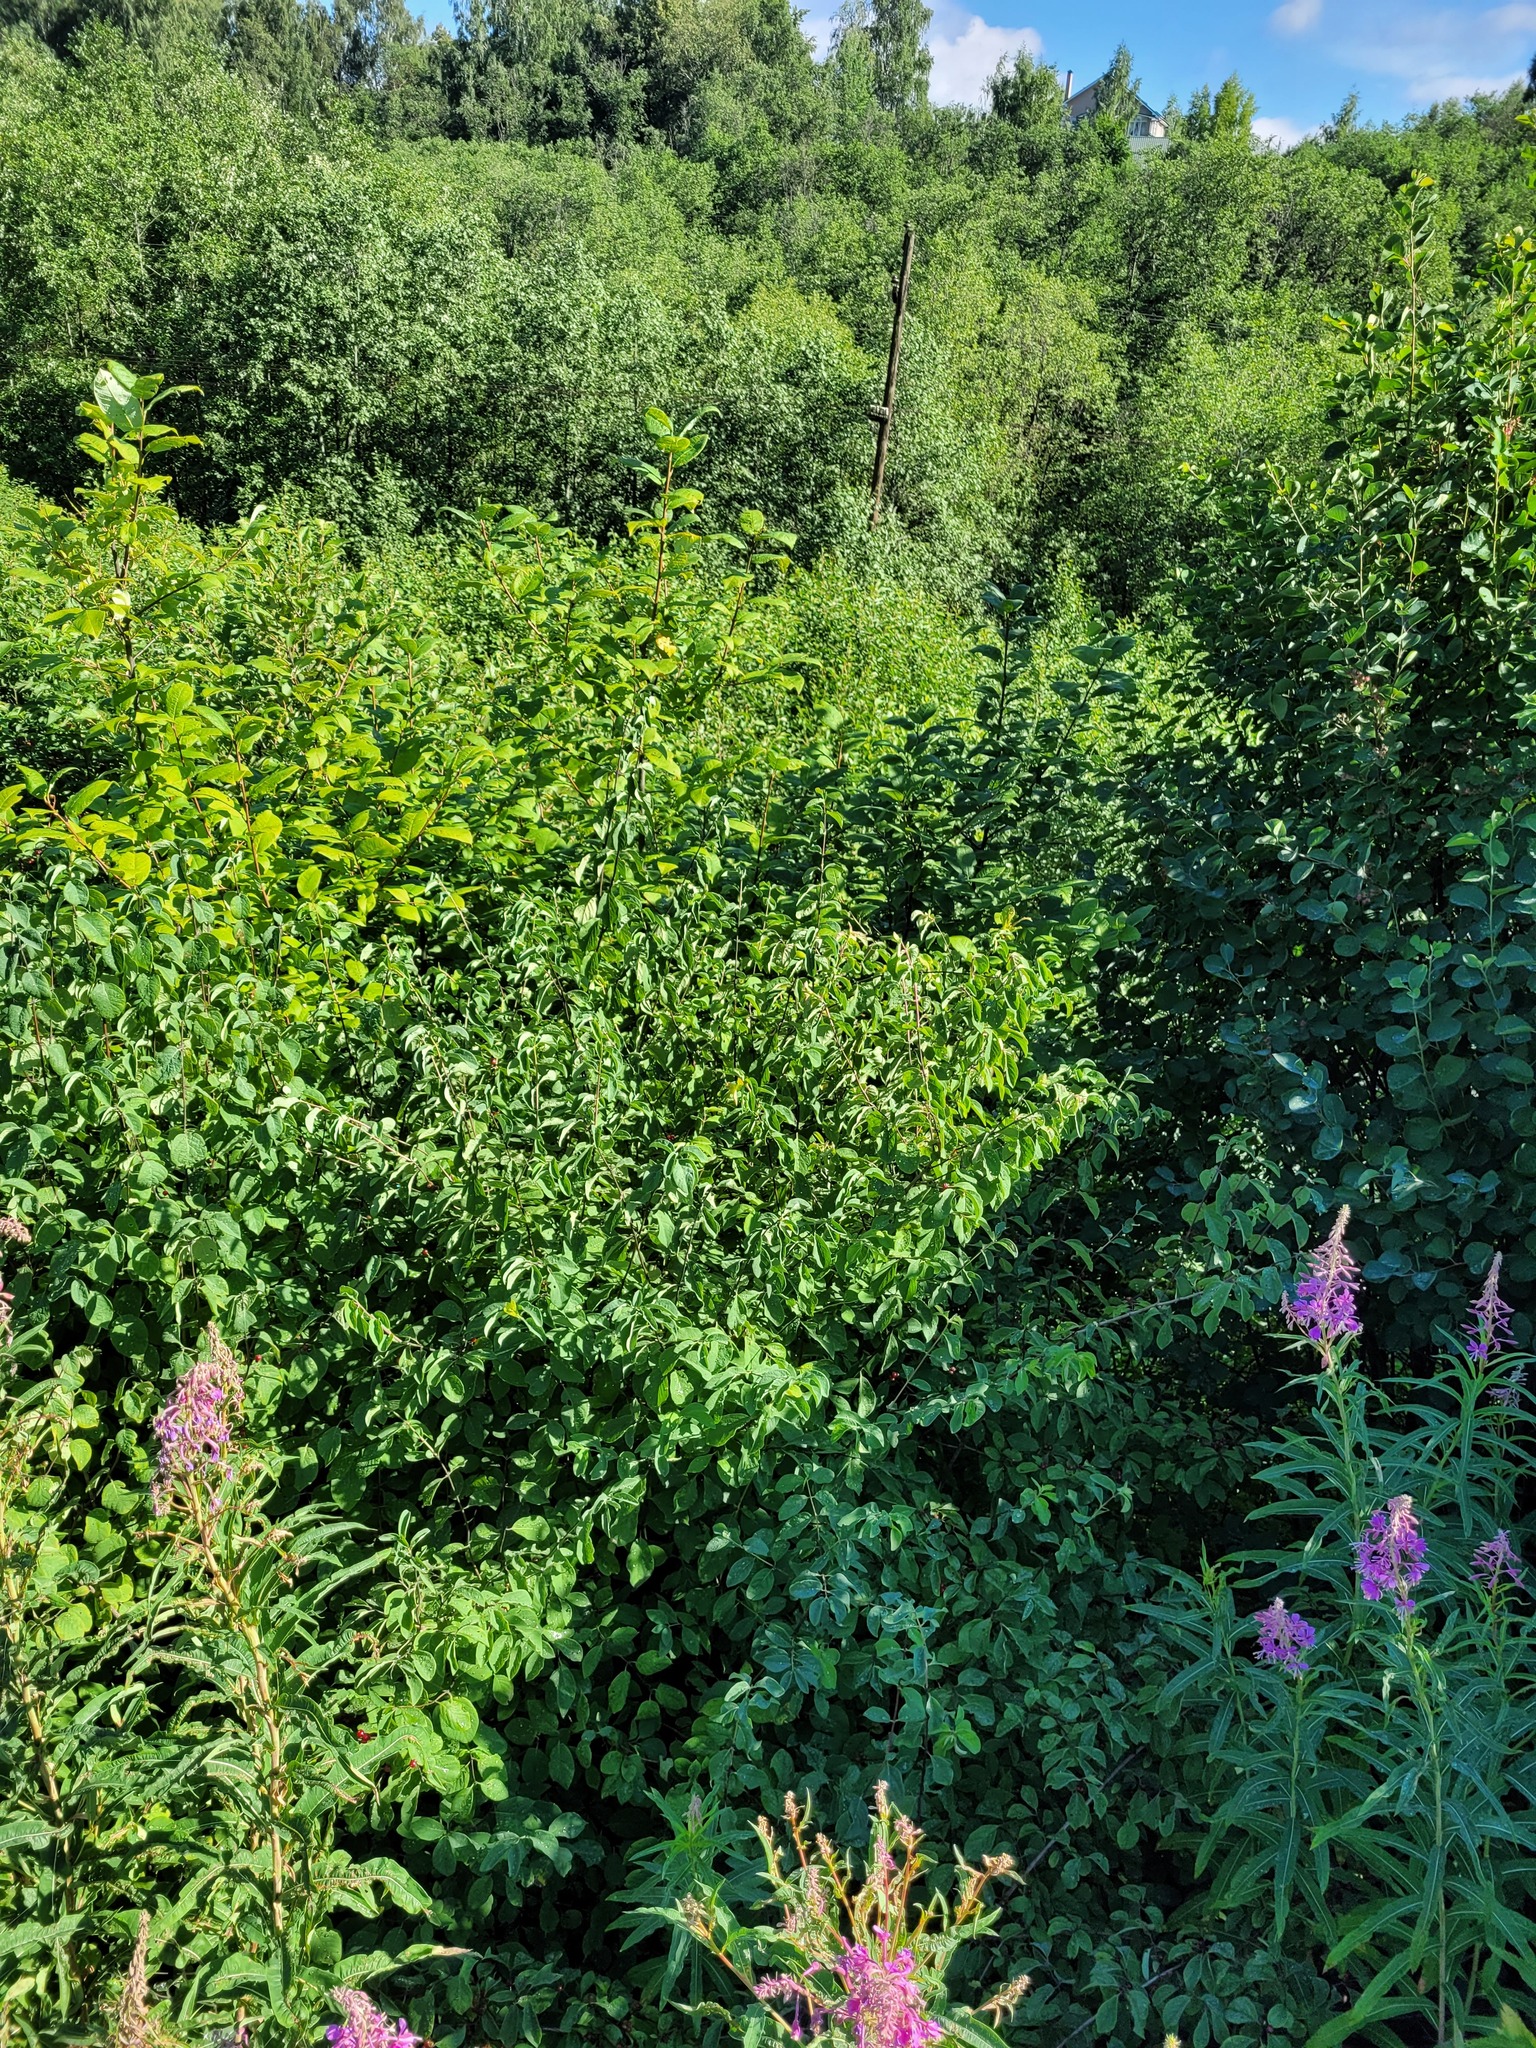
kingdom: Plantae
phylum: Tracheophyta
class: Magnoliopsida
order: Dipsacales
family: Caprifoliaceae
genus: Lonicera
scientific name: Lonicera xylosteum
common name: Fly honeysuckle
